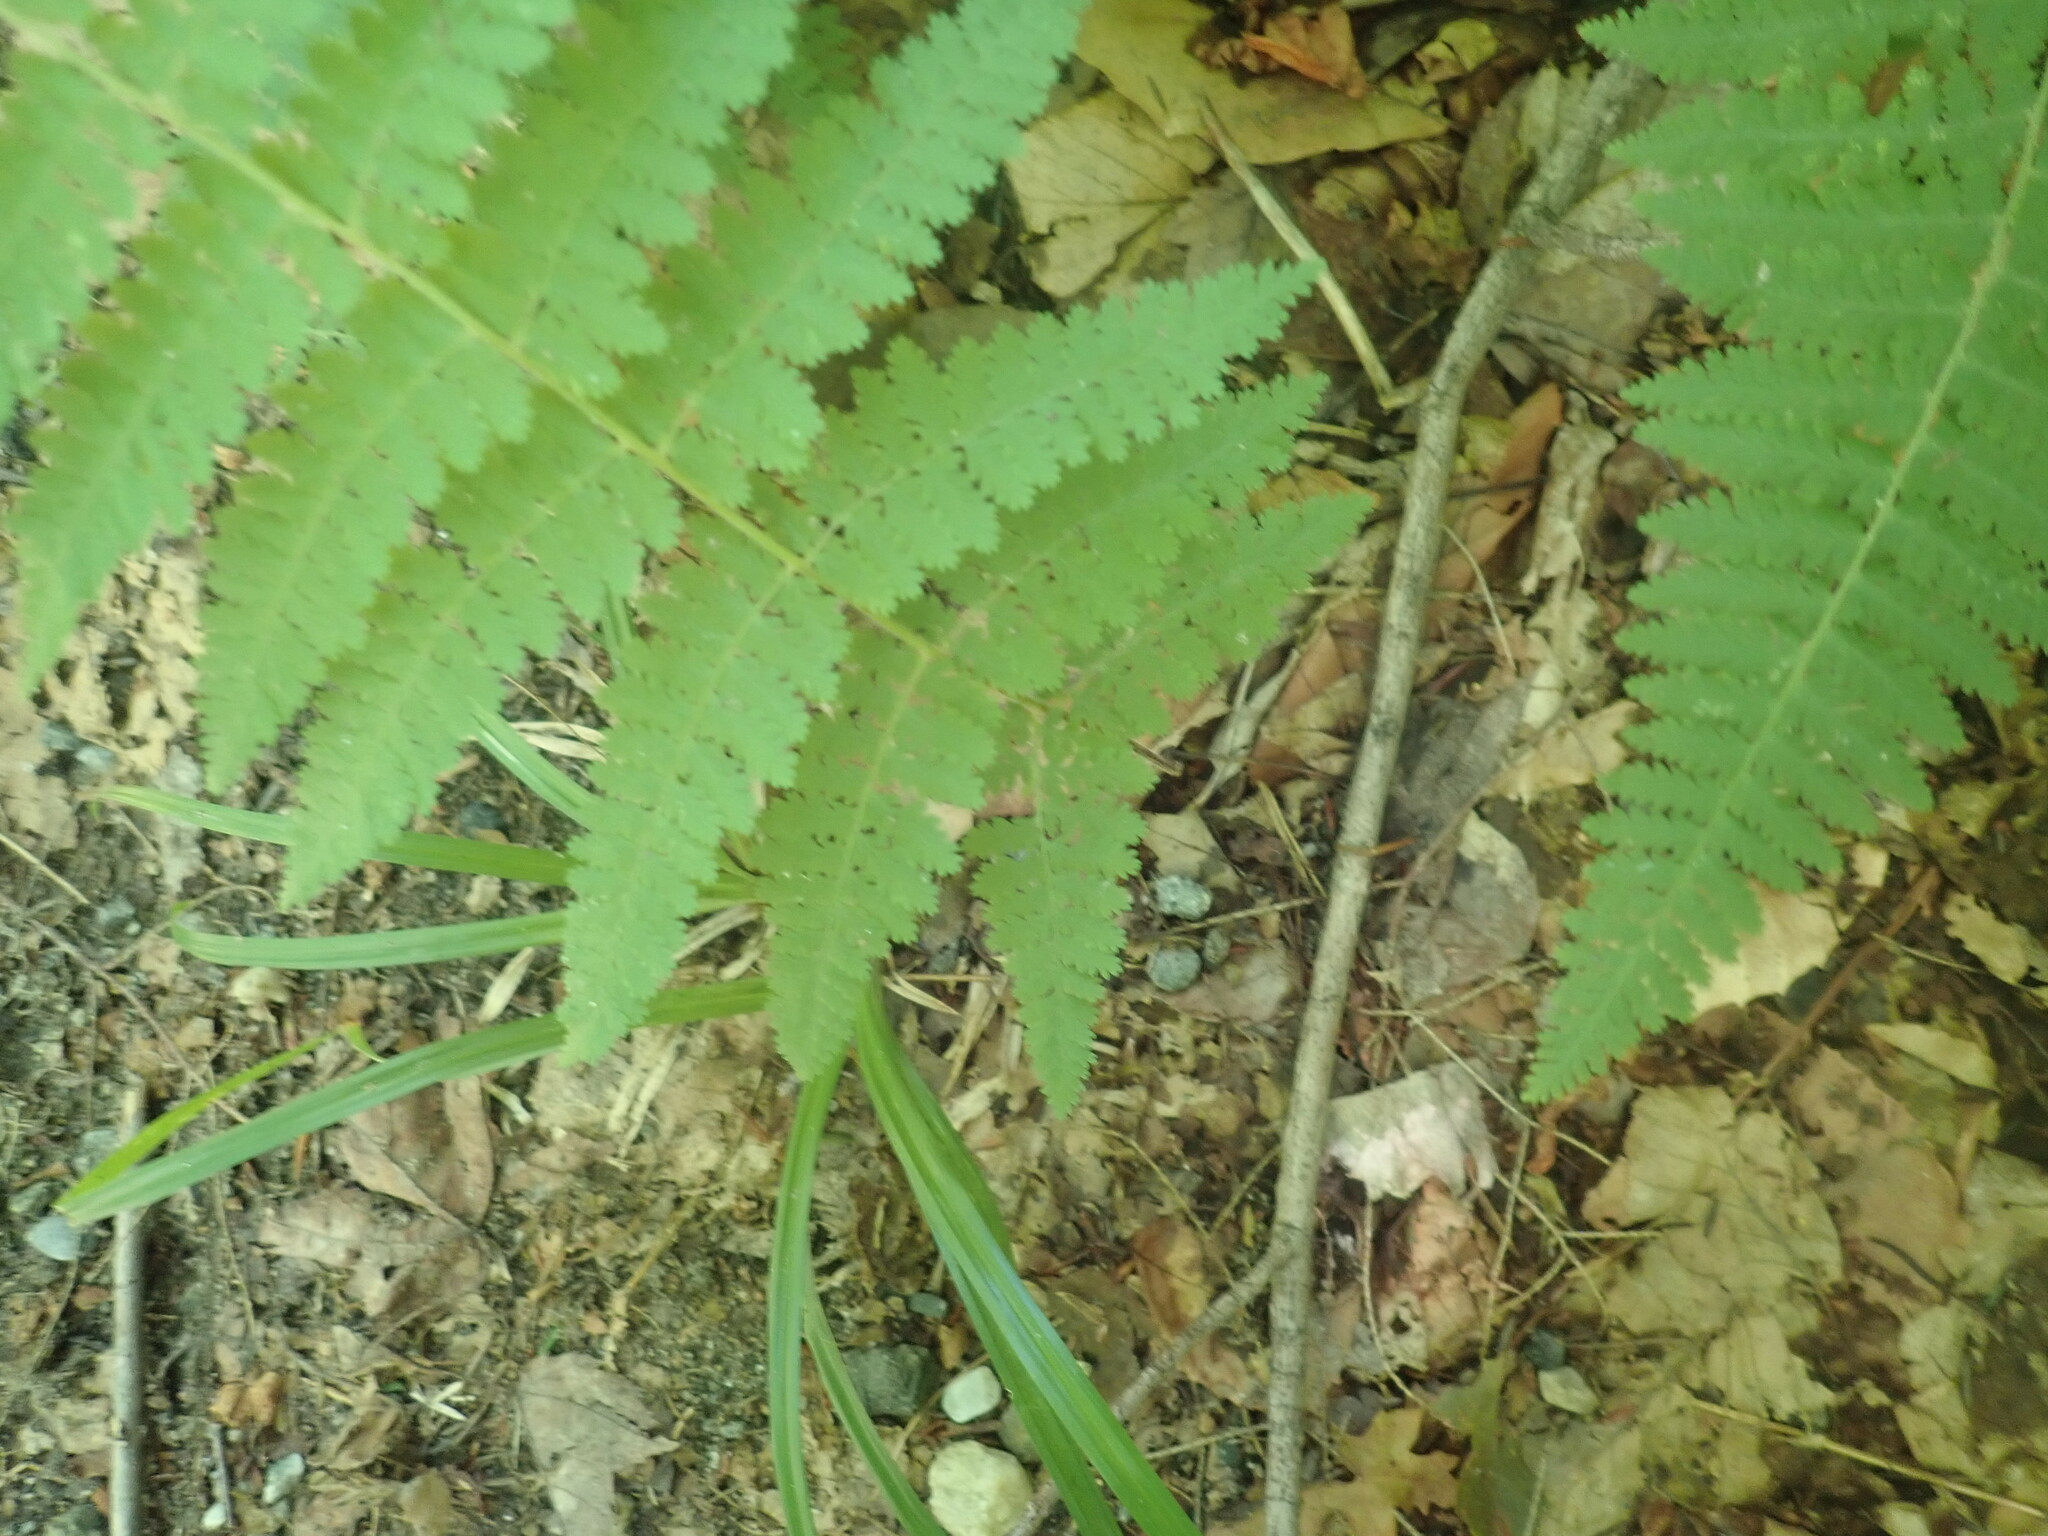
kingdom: Plantae
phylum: Tracheophyta
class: Polypodiopsida
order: Polypodiales
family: Dennstaedtiaceae
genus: Sitobolium
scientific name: Sitobolium punctilobum
